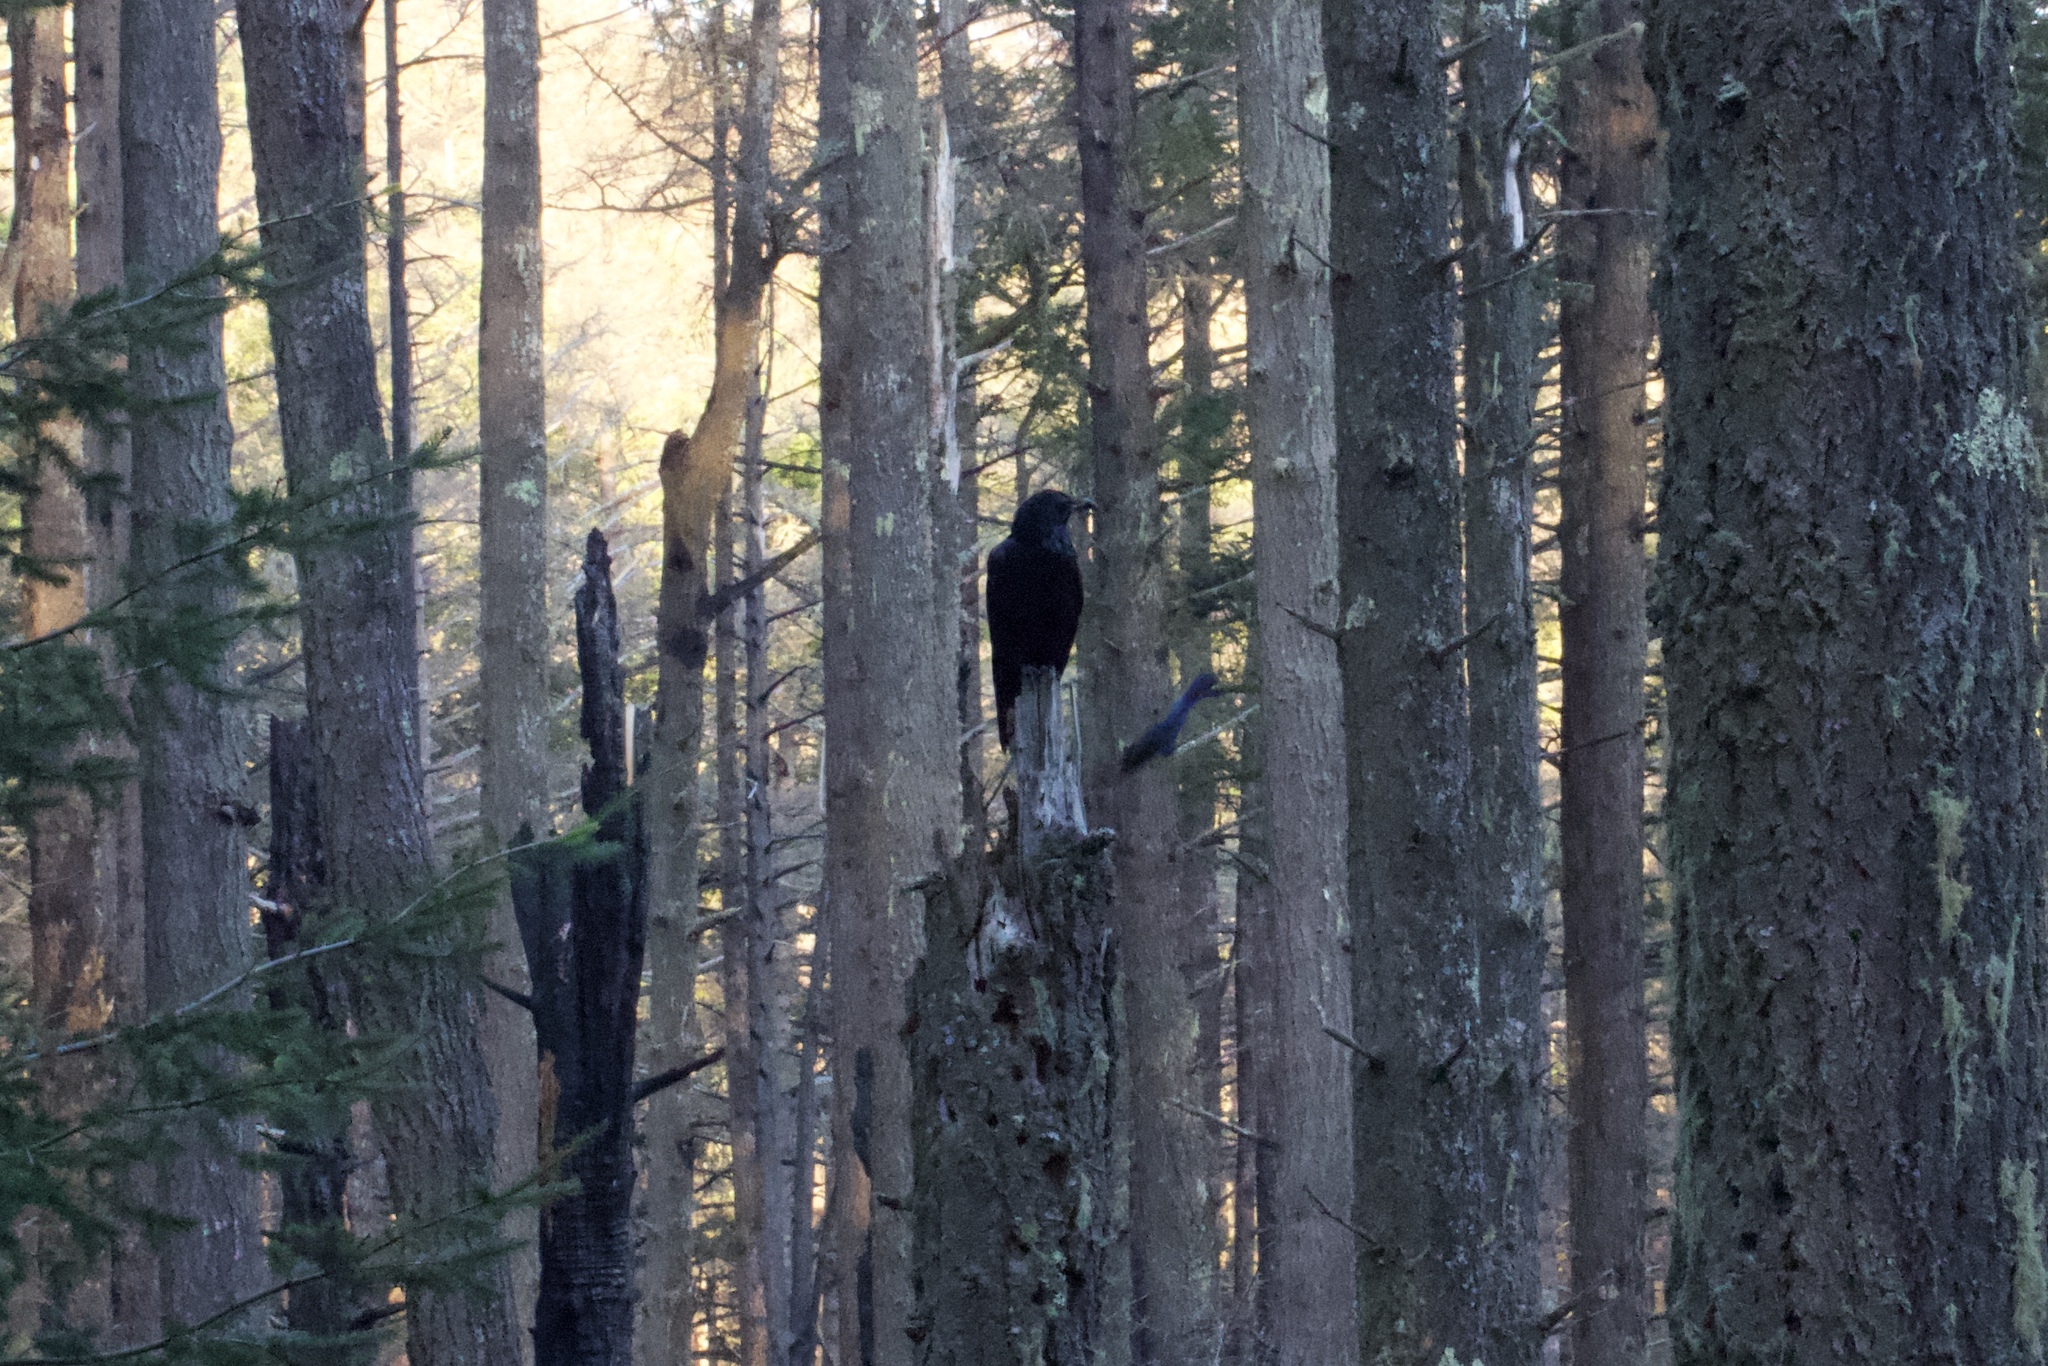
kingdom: Animalia
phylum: Chordata
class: Aves
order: Passeriformes
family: Corvidae
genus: Corvus
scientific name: Corvus corax
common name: Common raven
